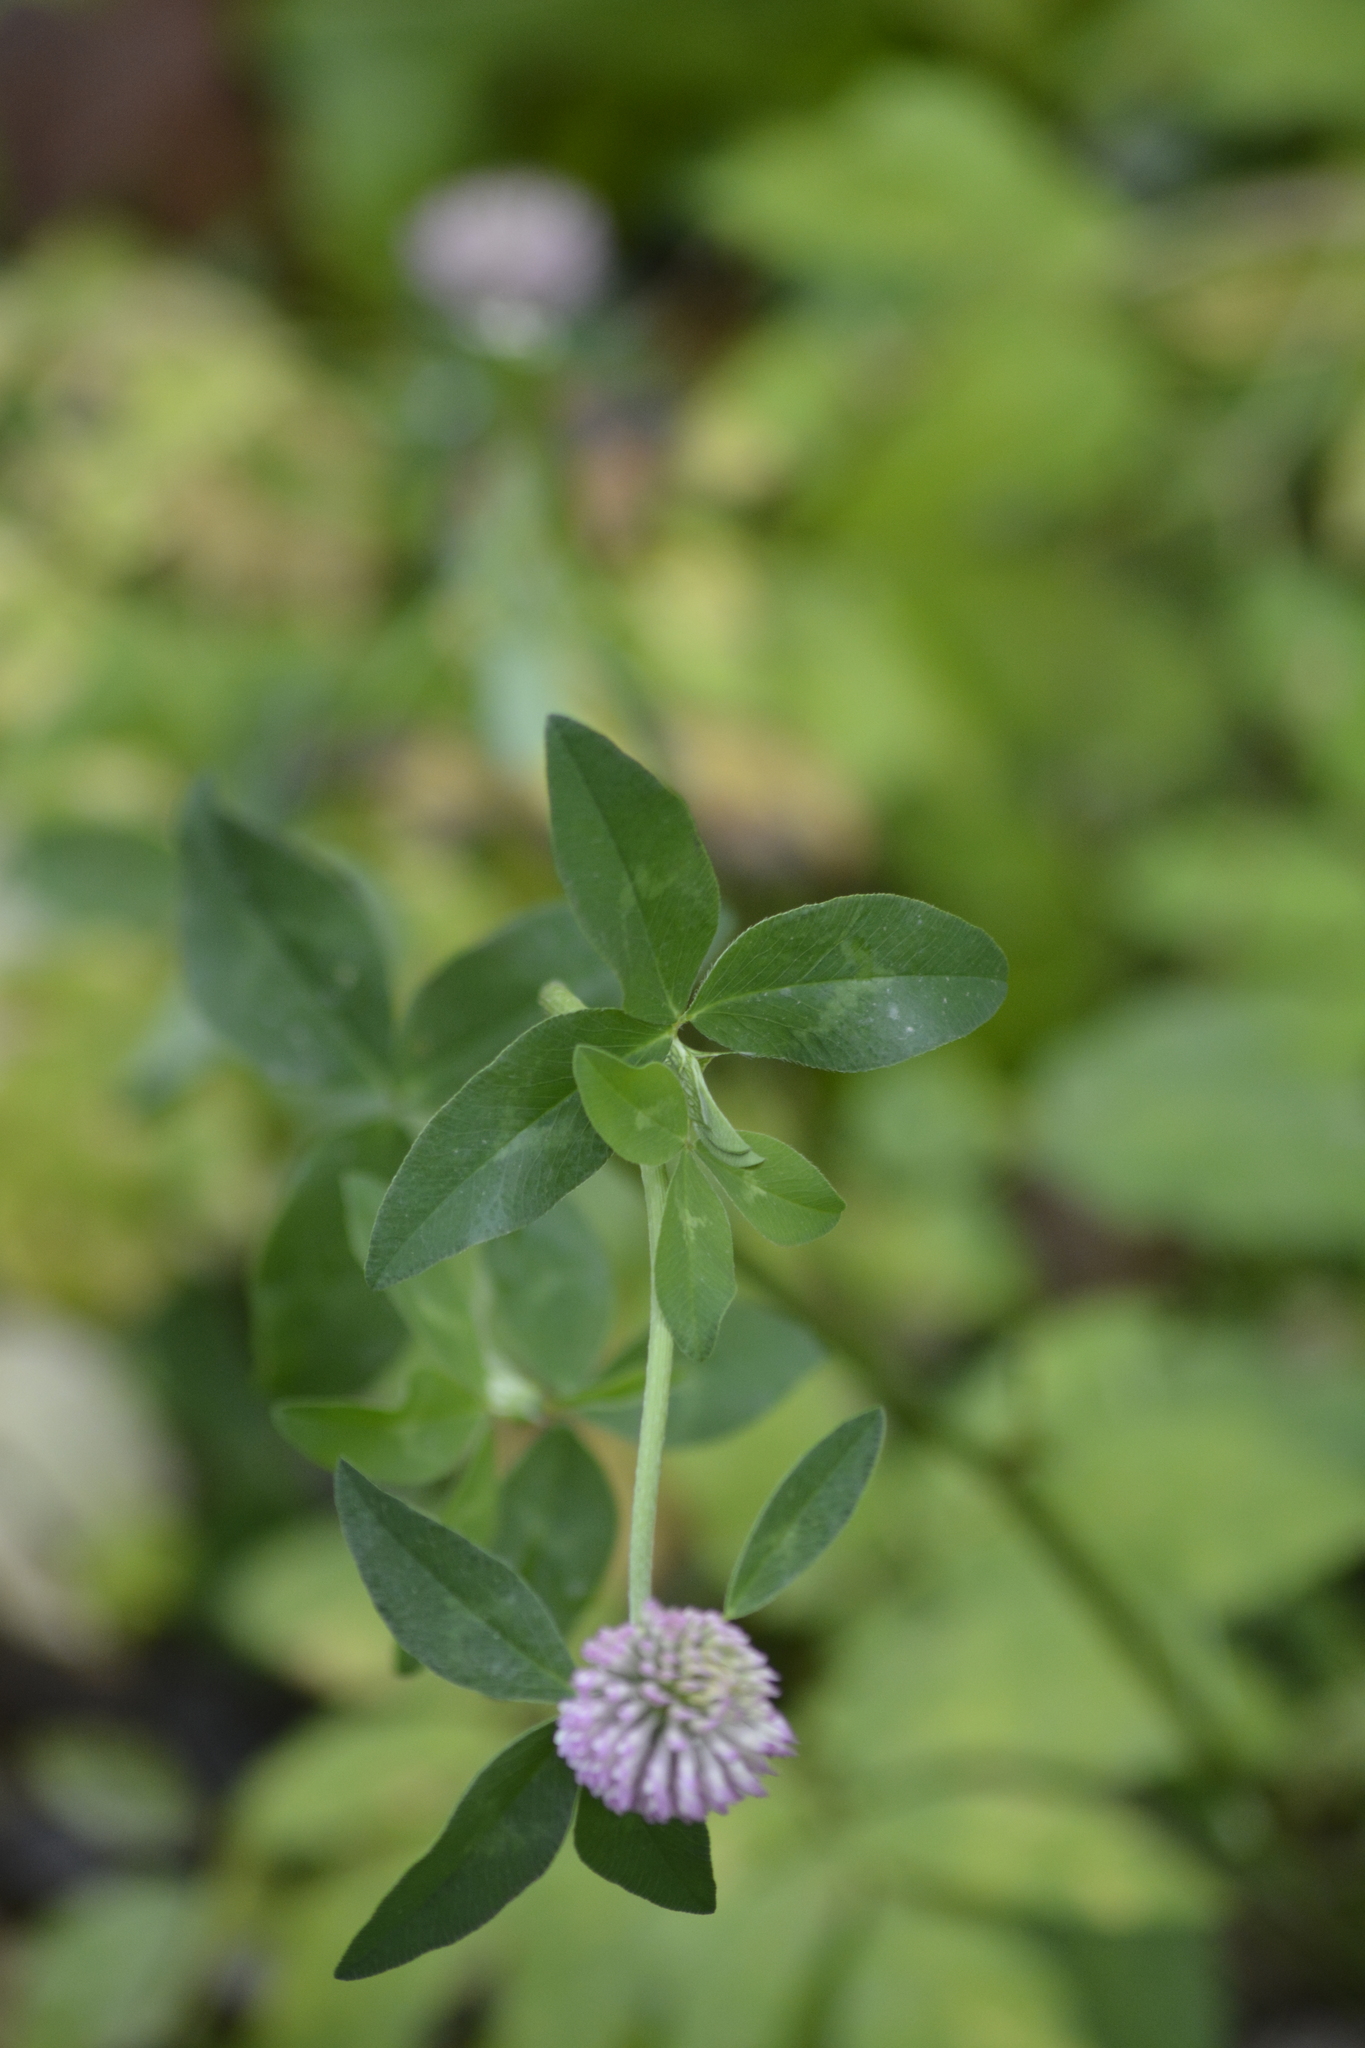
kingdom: Plantae
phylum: Tracheophyta
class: Magnoliopsida
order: Fabales
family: Fabaceae
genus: Trifolium
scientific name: Trifolium pratense
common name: Red clover
